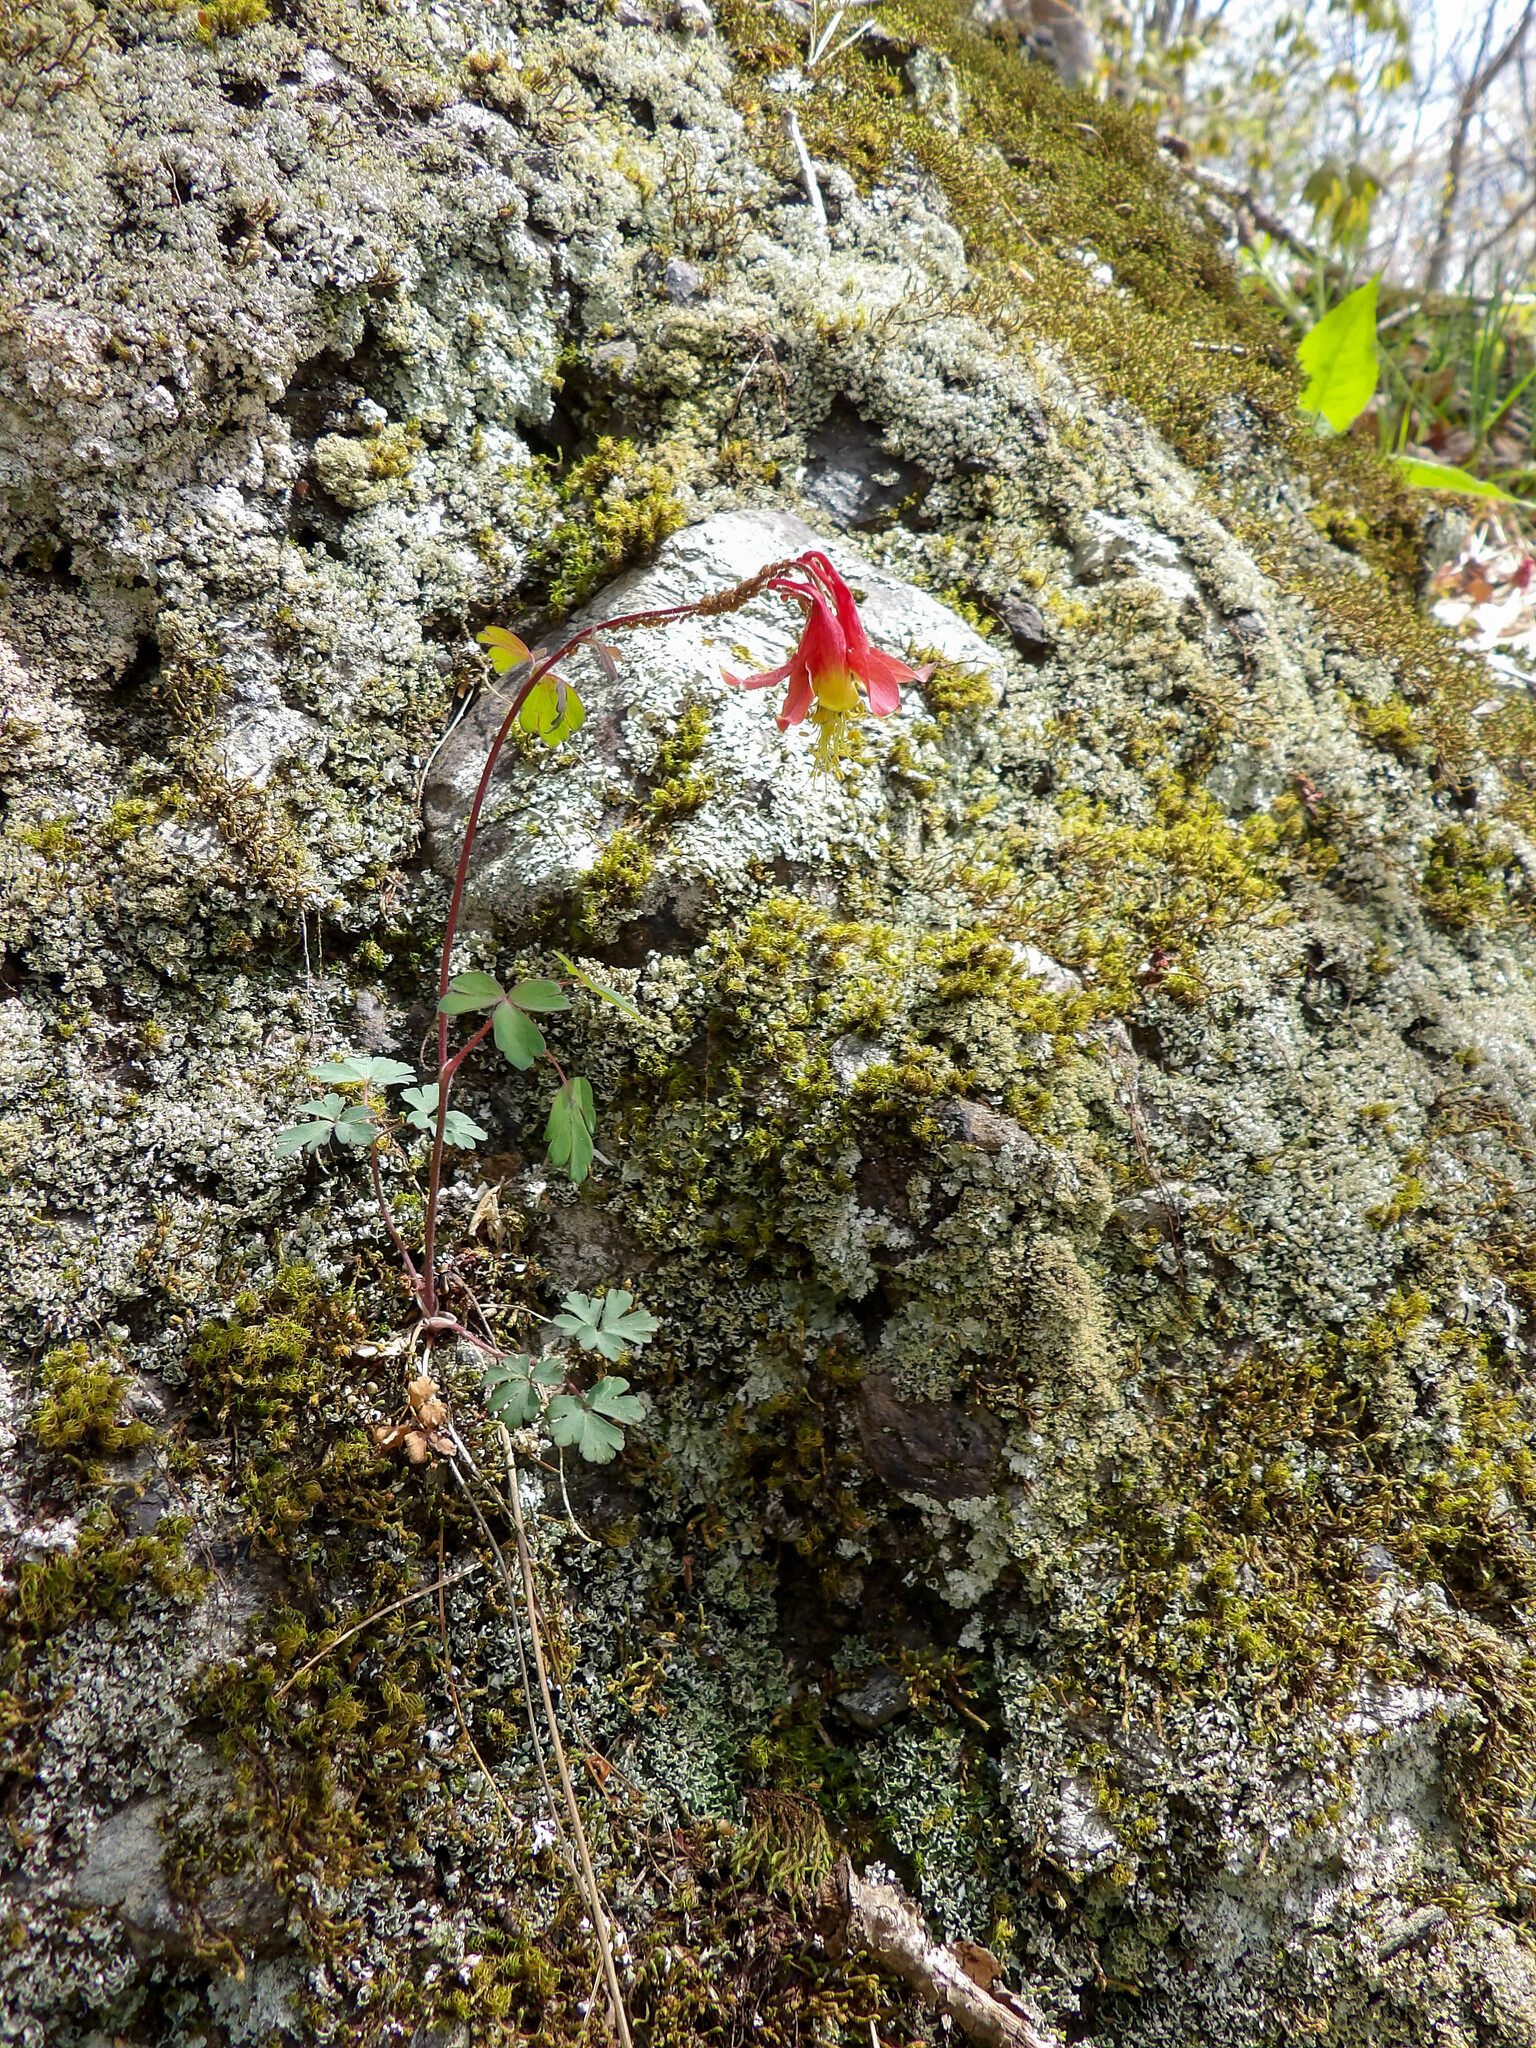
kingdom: Plantae
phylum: Tracheophyta
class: Magnoliopsida
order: Ranunculales
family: Ranunculaceae
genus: Aquilegia
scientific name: Aquilegia canadensis
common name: American columbine
